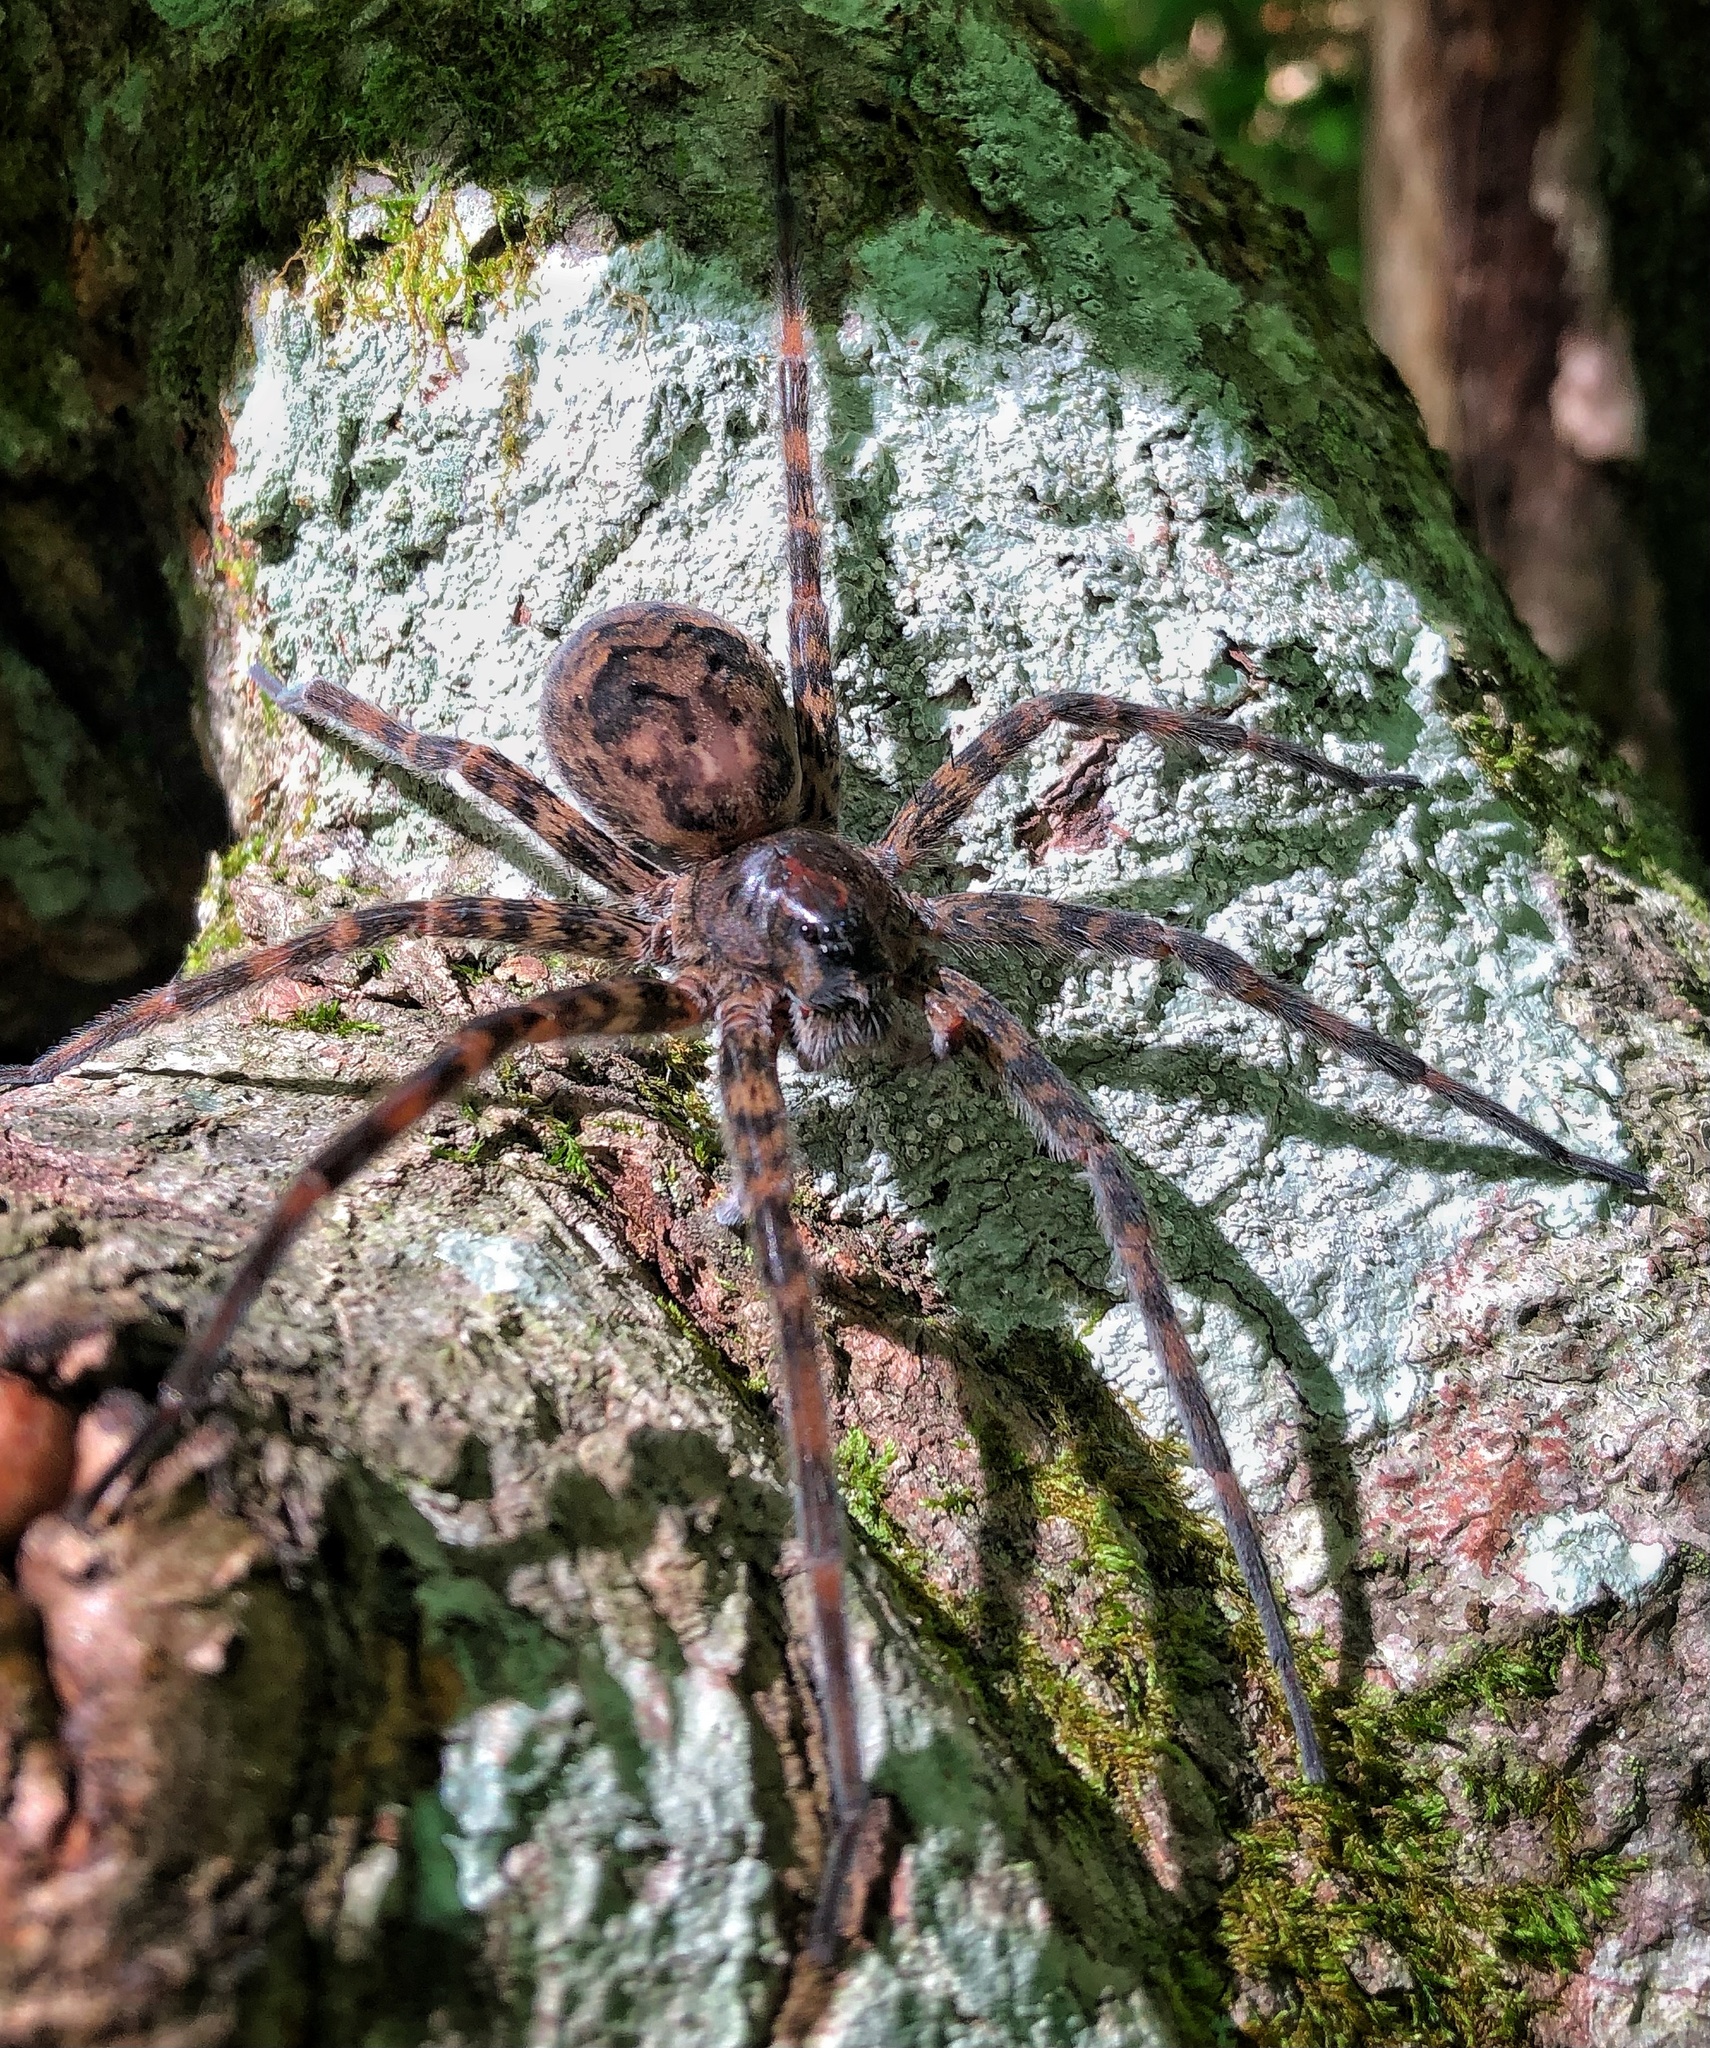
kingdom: Animalia
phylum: Arthropoda
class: Arachnida
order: Araneae
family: Pisauridae
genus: Dolomedes
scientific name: Dolomedes tenebrosus
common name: Dark fishing spider
